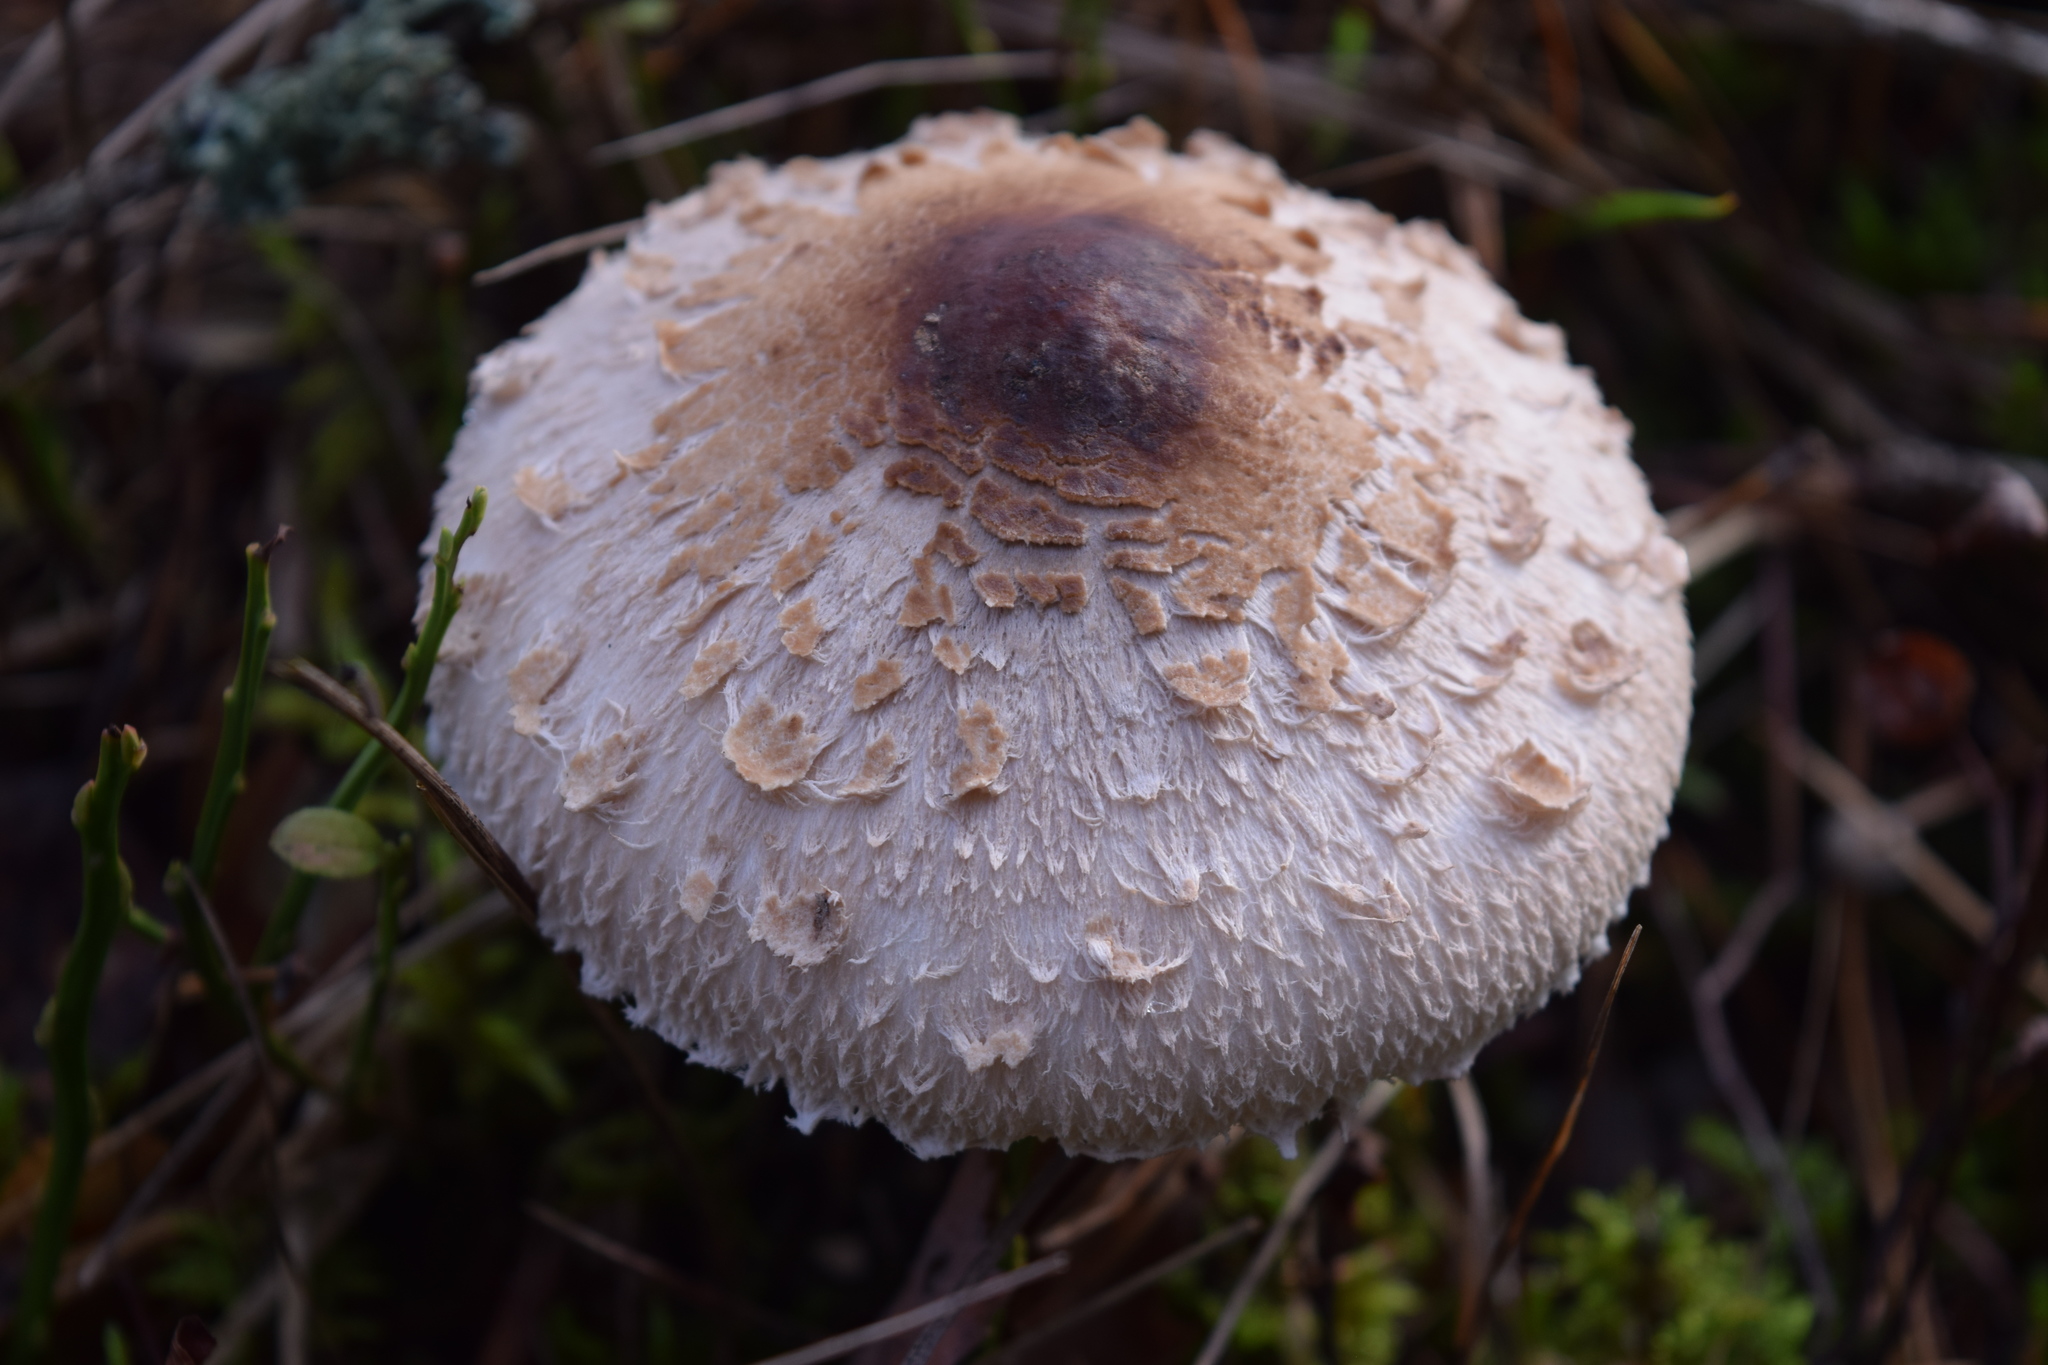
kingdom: Fungi
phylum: Basidiomycota
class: Agaricomycetes
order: Agaricales
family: Agaricaceae
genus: Macrolepiota
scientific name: Macrolepiota procera
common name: Parasol
